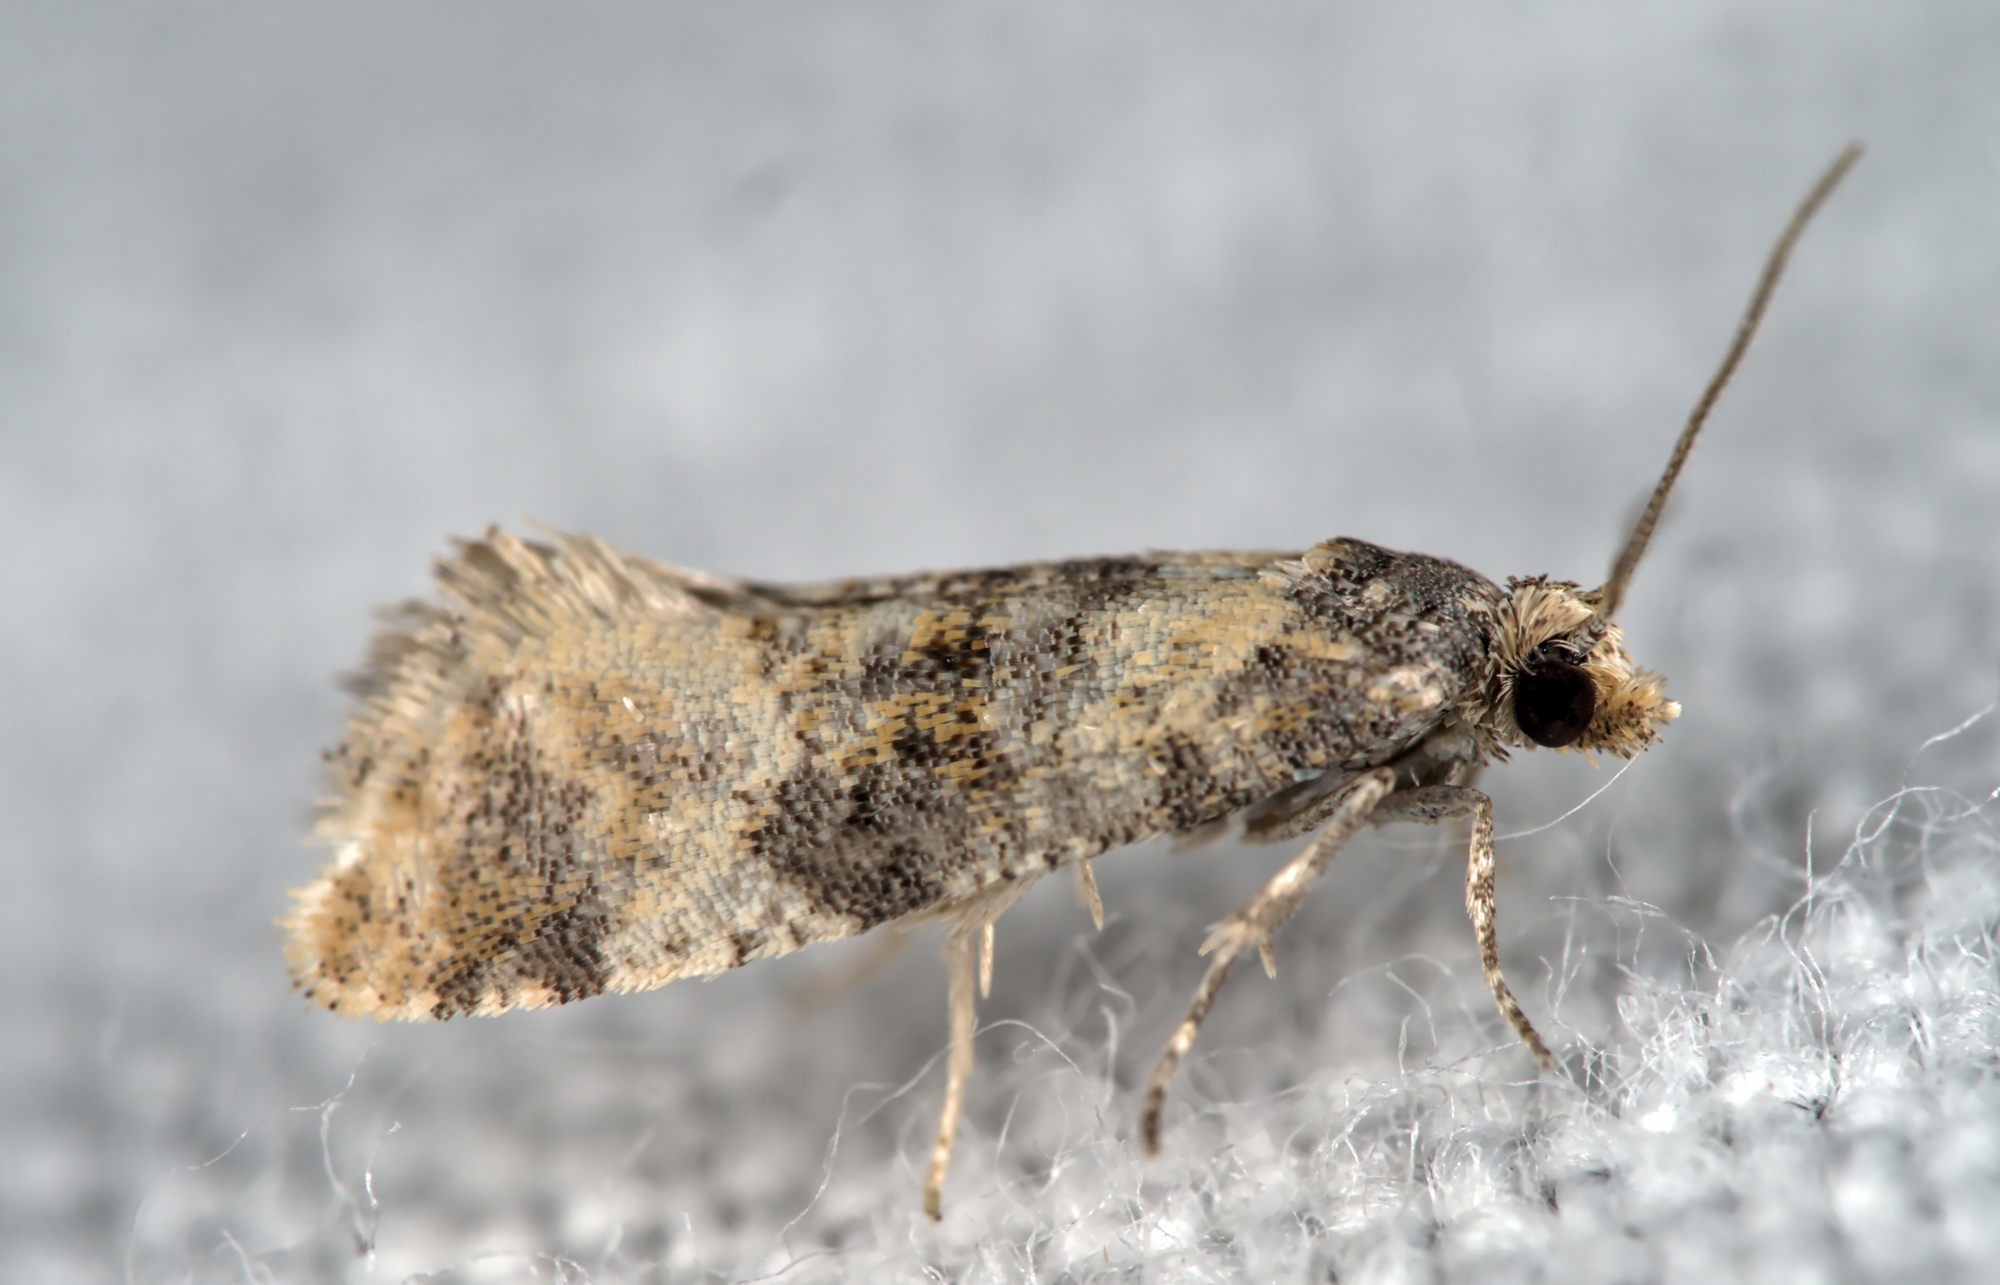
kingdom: Animalia
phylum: Arthropoda
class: Insecta
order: Lepidoptera
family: Tortricidae
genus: Thyraylia
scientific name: Thyraylia nana
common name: Birch conch
